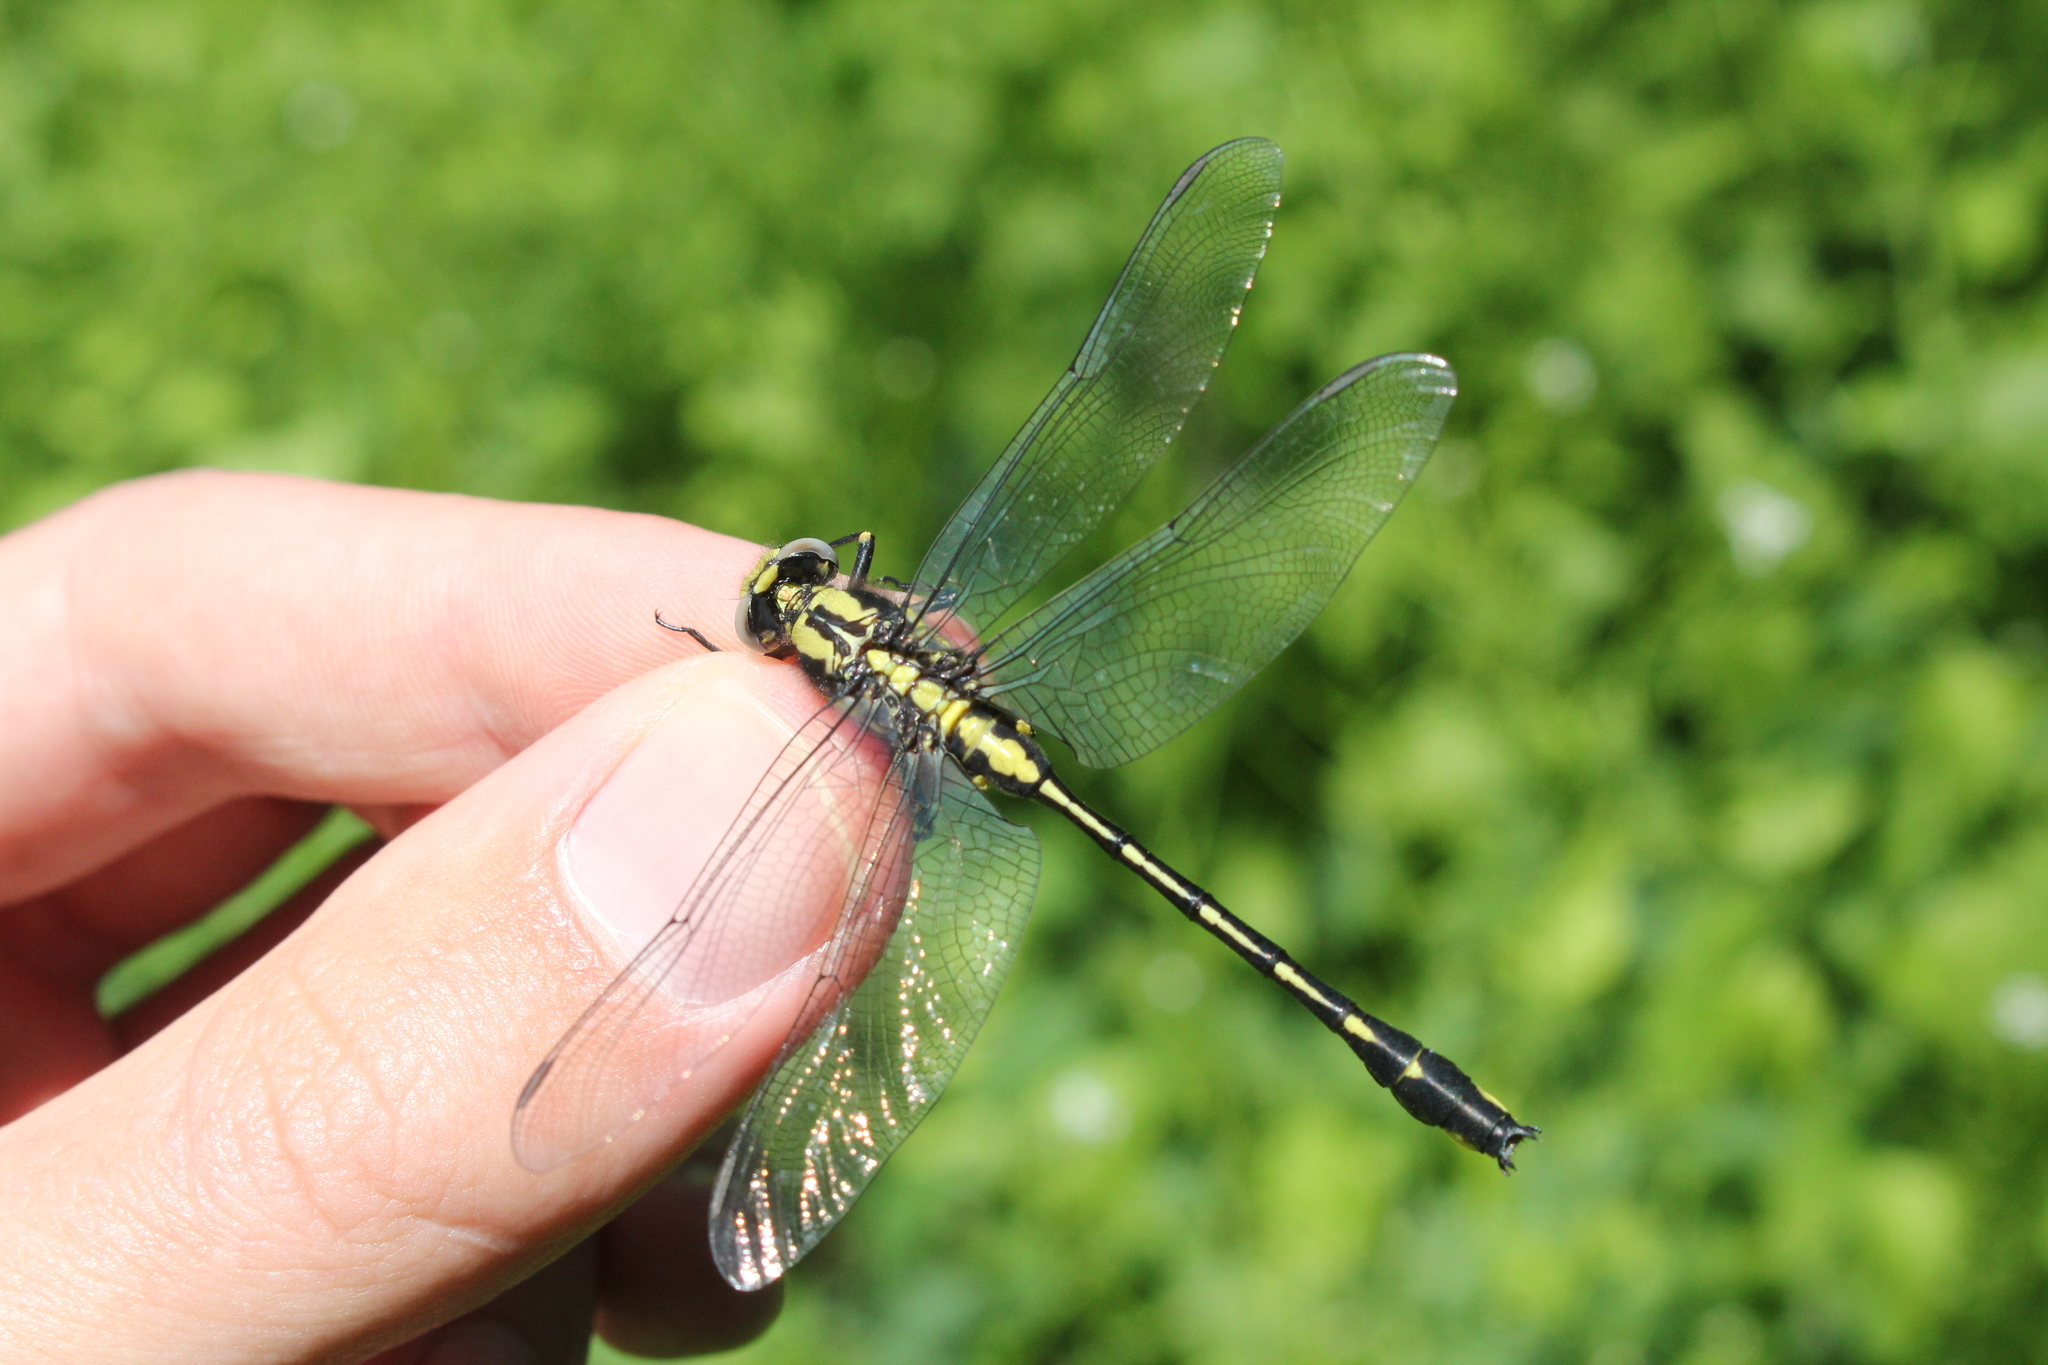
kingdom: Animalia
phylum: Arthropoda
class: Insecta
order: Odonata
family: Gomphidae
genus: Gomphurus
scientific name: Gomphurus fraternus
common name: Midland clubtail
